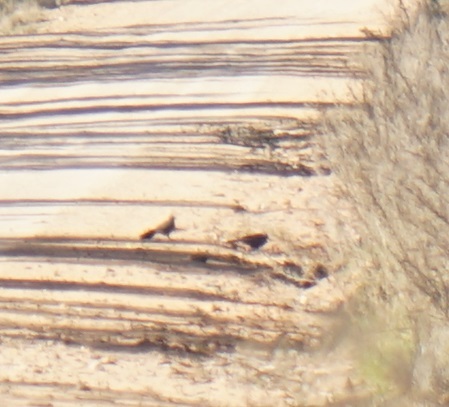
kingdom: Animalia
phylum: Chordata
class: Aves
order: Passeriformes
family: Corcoracidae
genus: Struthidea
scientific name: Struthidea cinerea
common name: Apostlebird
